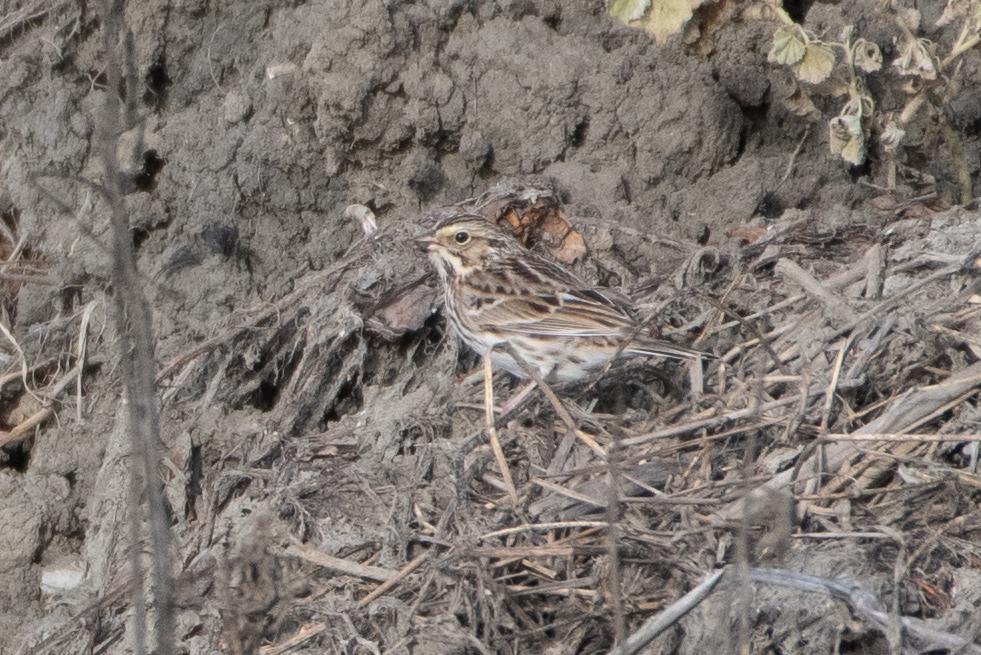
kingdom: Animalia
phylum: Chordata
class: Aves
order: Passeriformes
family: Passerellidae
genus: Passerculus
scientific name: Passerculus sandwichensis
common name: Savannah sparrow
